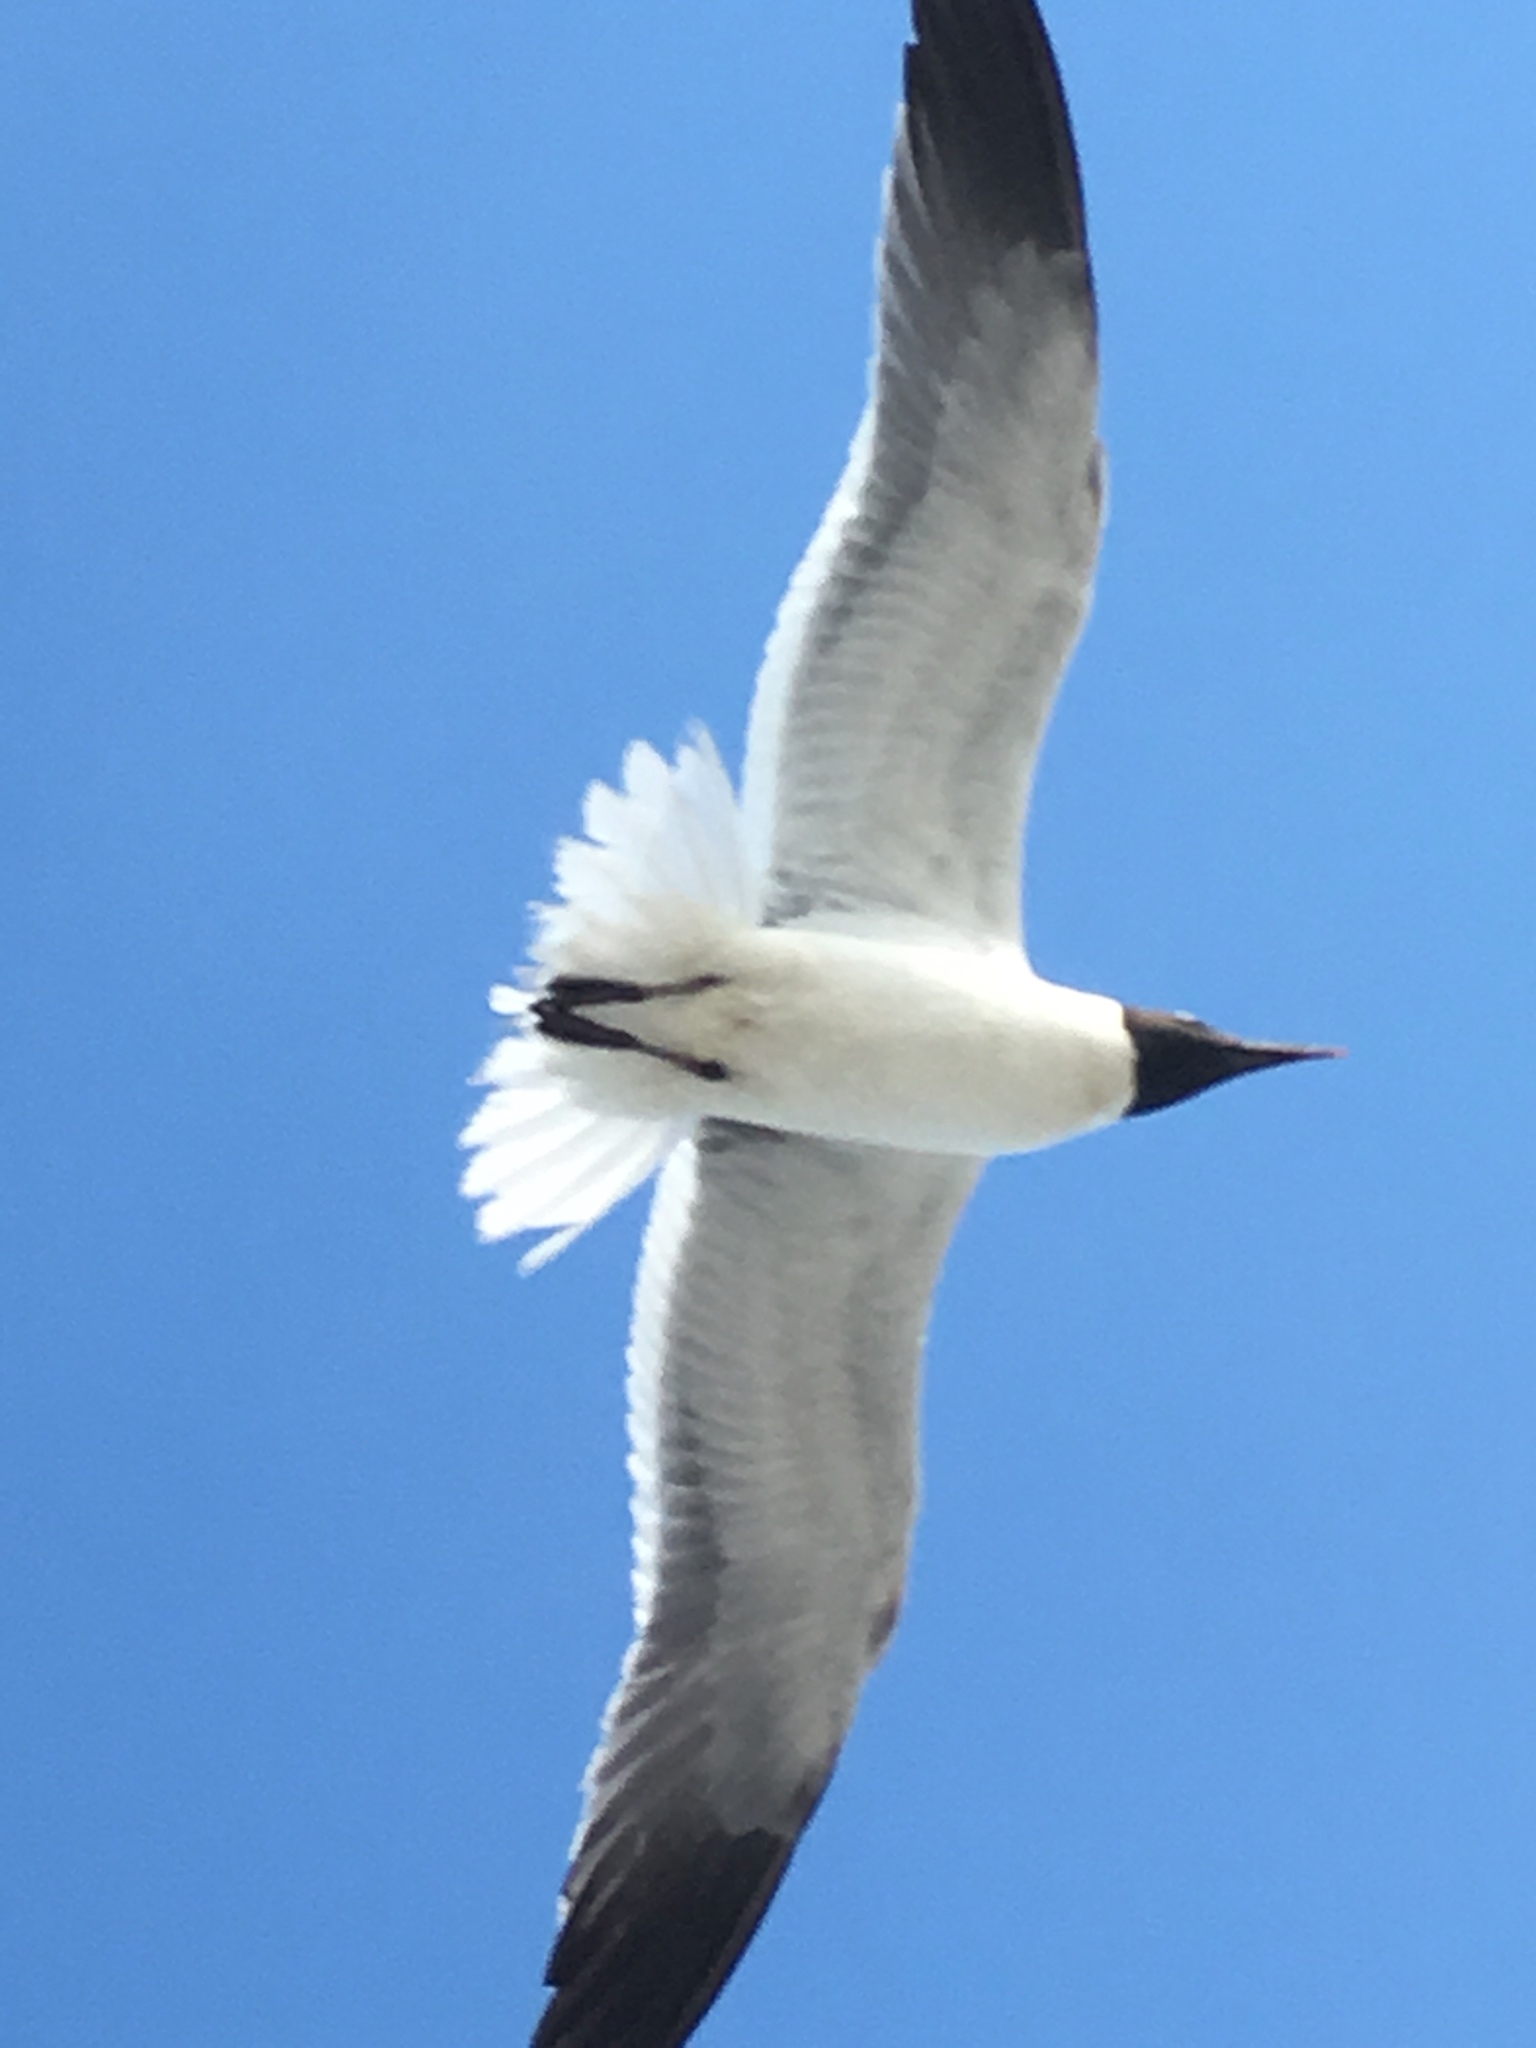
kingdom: Animalia
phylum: Chordata
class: Aves
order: Charadriiformes
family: Laridae
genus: Leucophaeus
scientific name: Leucophaeus atricilla
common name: Laughing gull
